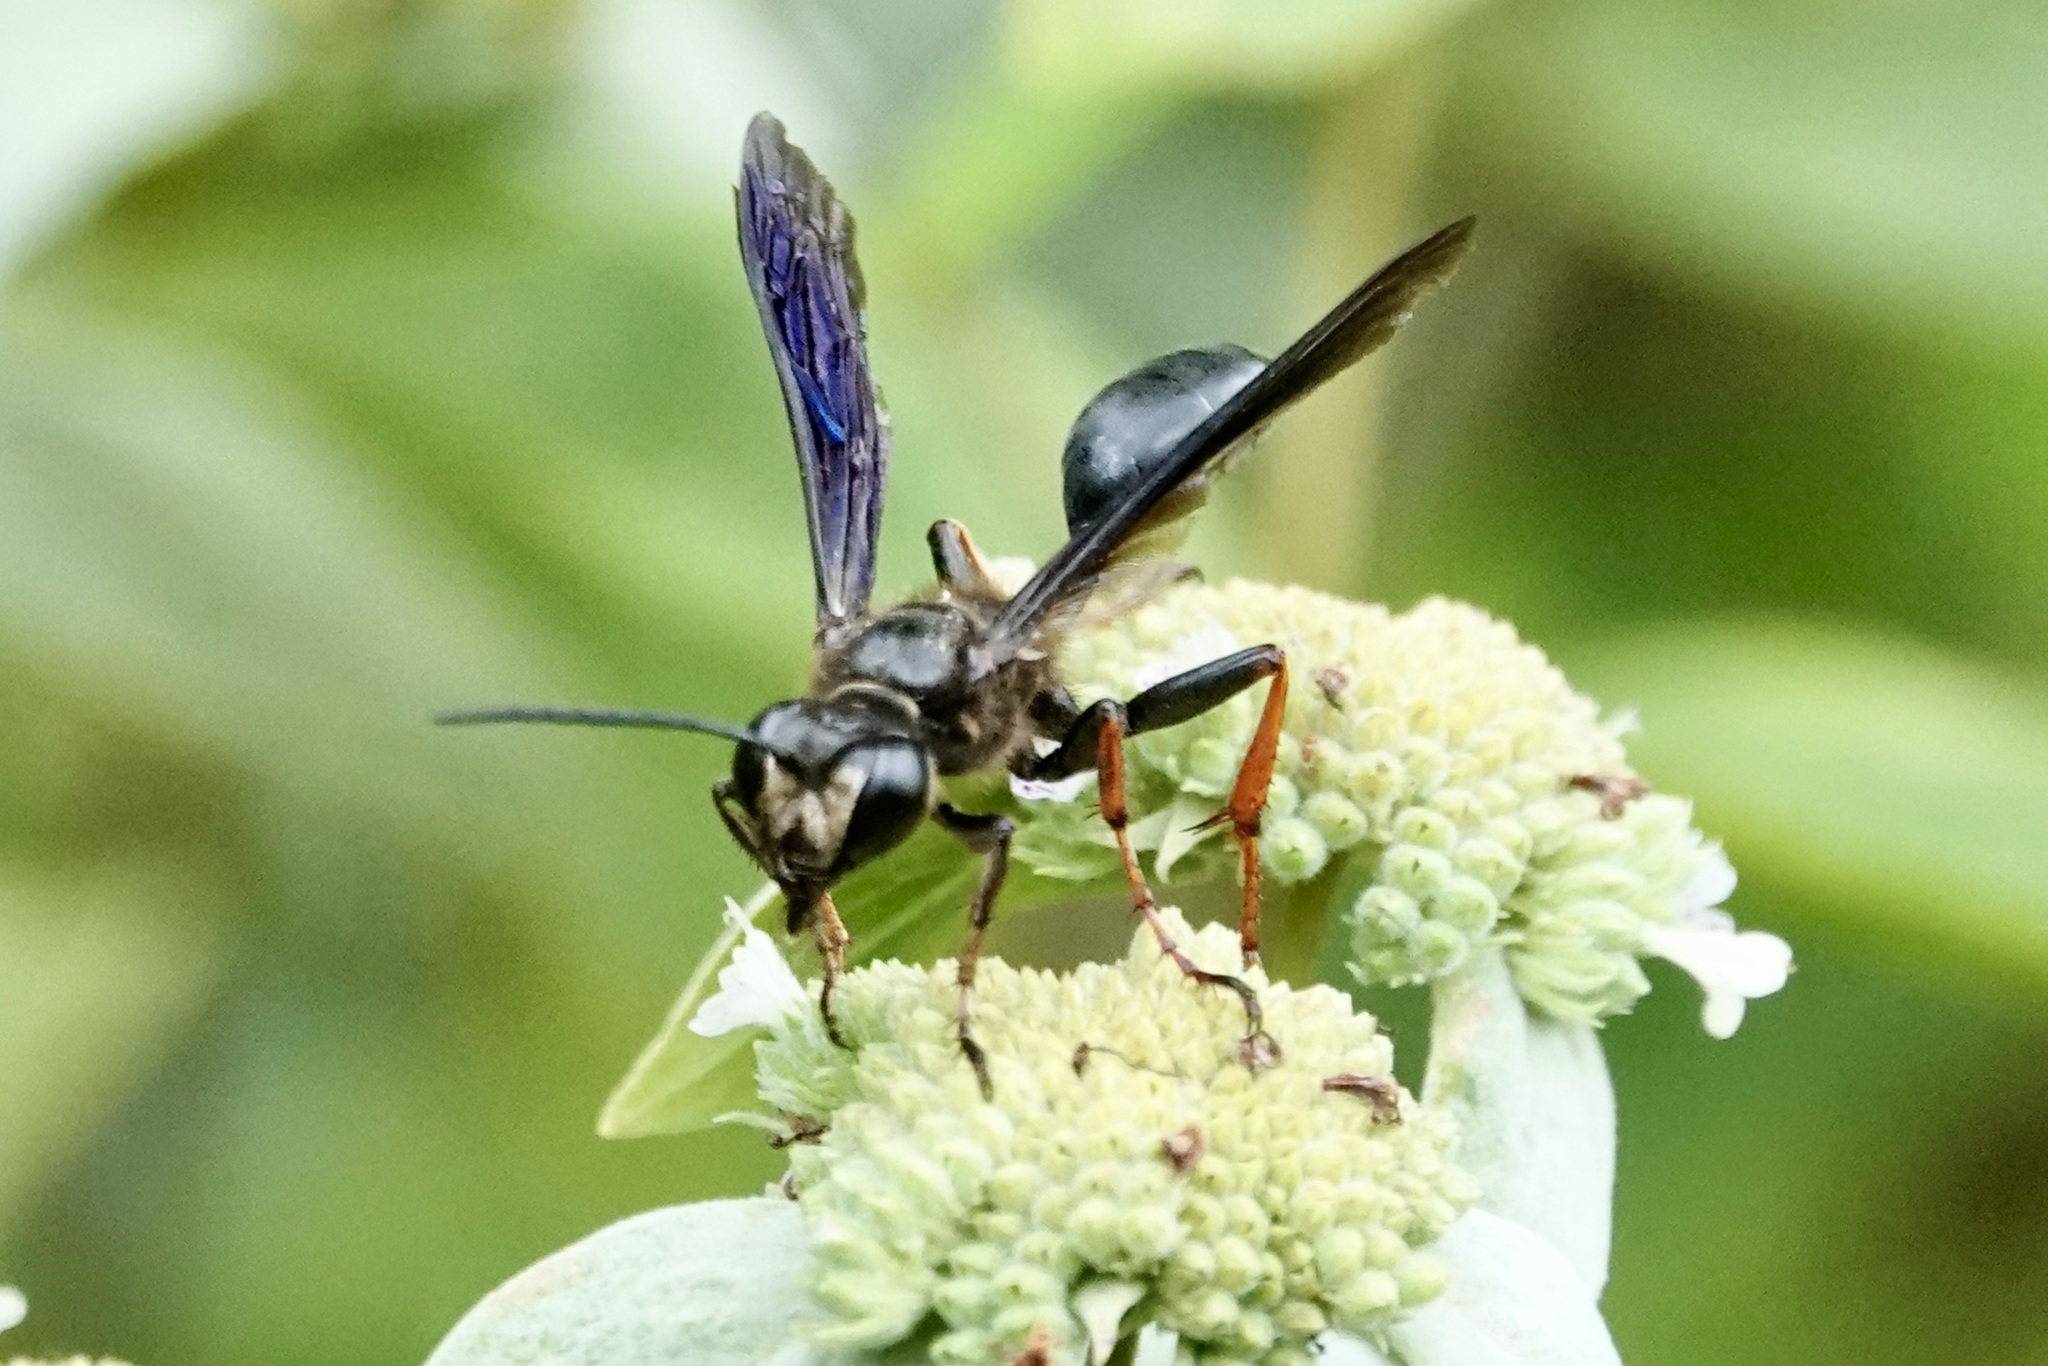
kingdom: Animalia
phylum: Arthropoda
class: Insecta
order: Hymenoptera
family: Sphecidae
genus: Isodontia
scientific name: Isodontia auripes
